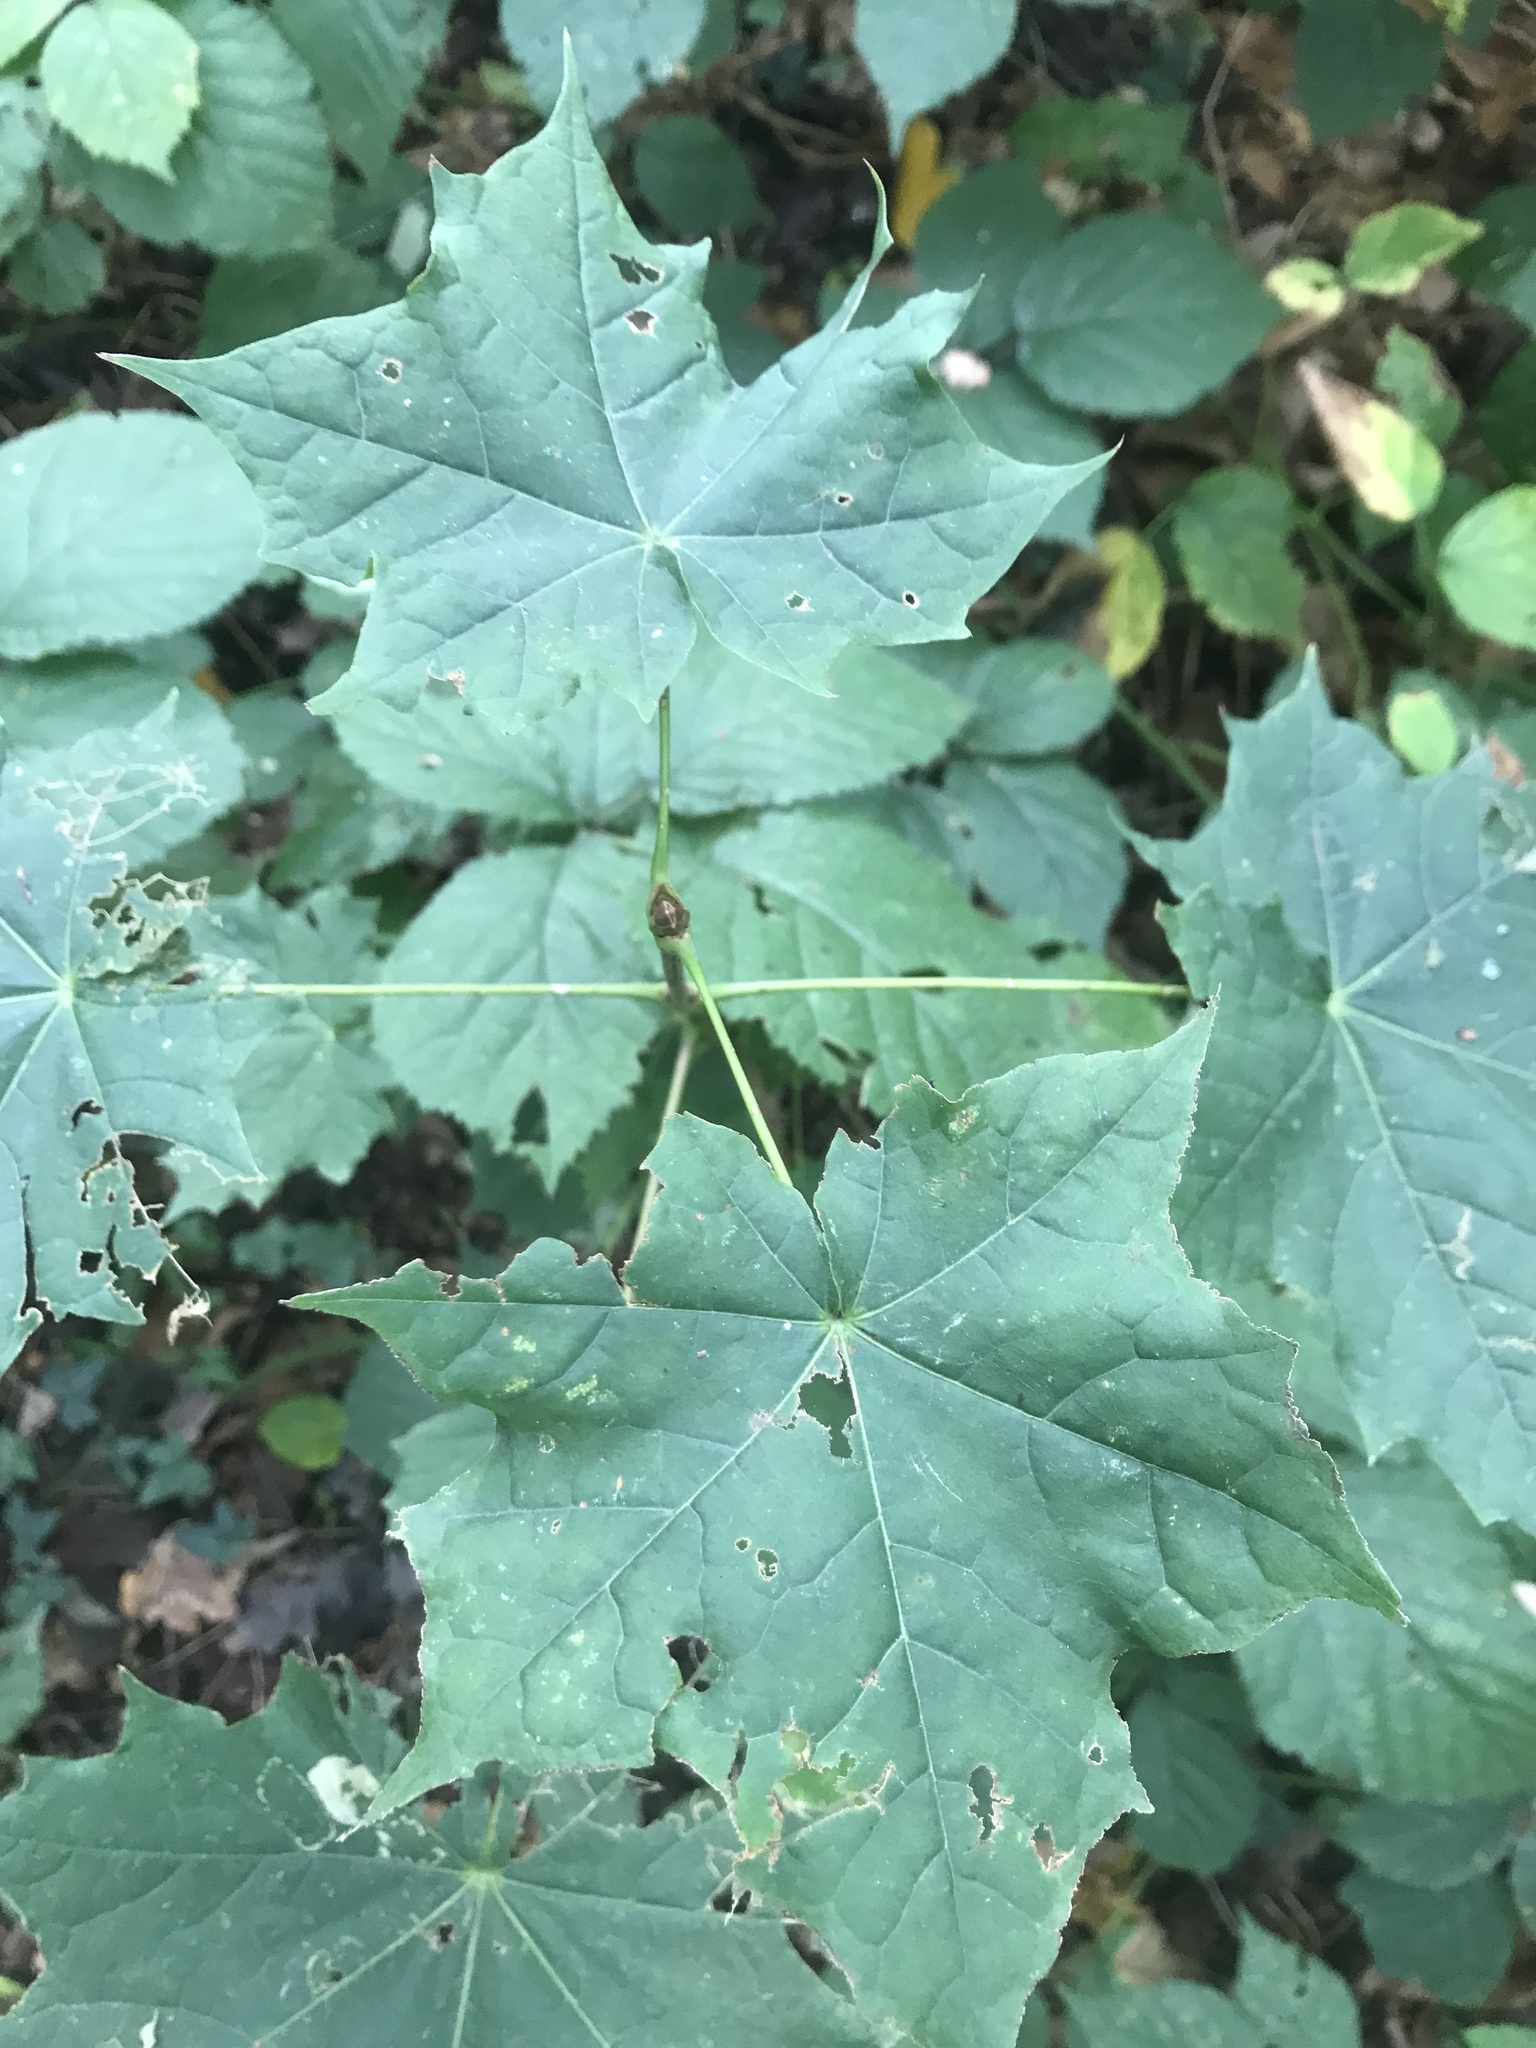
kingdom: Plantae
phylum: Tracheophyta
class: Magnoliopsida
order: Sapindales
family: Sapindaceae
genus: Acer
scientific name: Acer platanoides
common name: Norway maple
